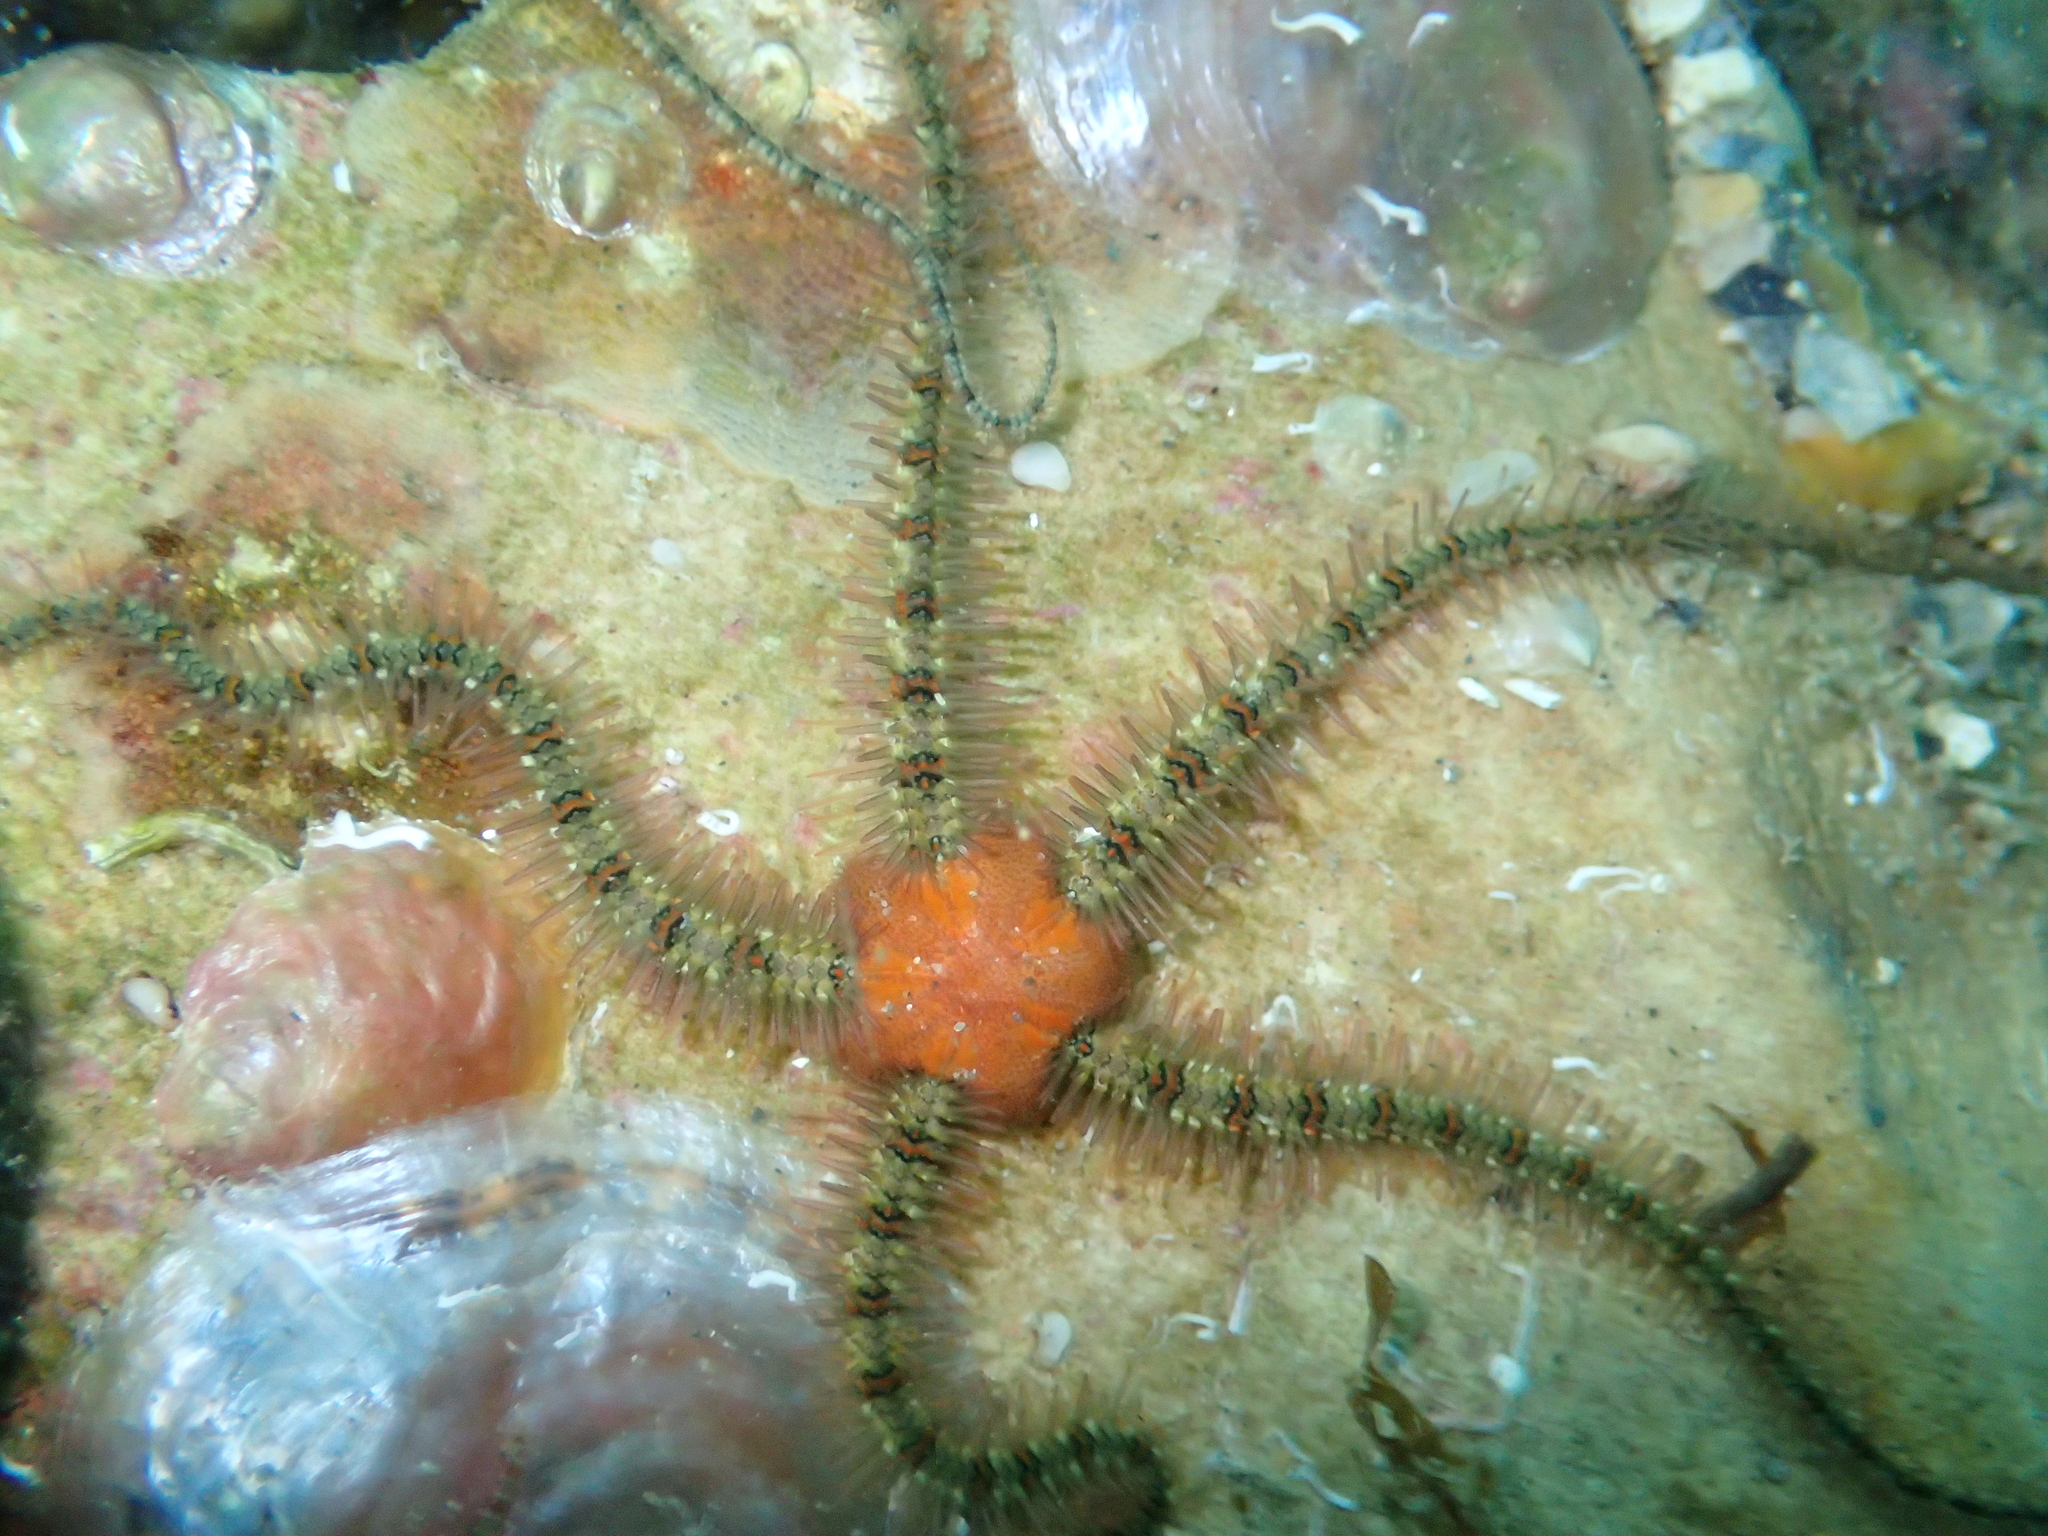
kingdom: Animalia
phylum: Echinodermata
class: Ophiuroidea
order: Amphilepidida
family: Ophiotrichidae
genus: Ophiothrix
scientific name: Ophiothrix fragilis
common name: Common brittlestar
